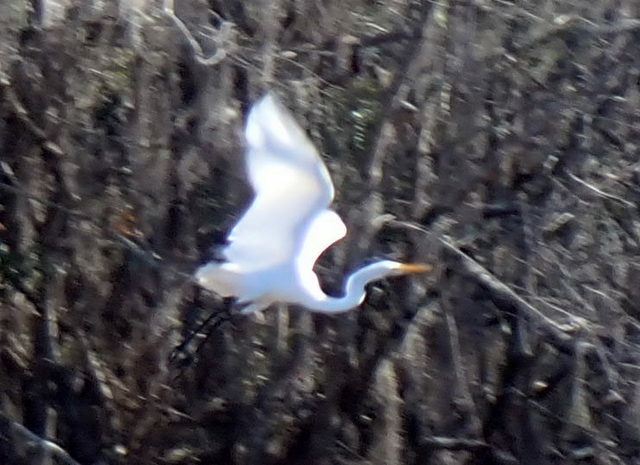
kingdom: Animalia
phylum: Chordata
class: Aves
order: Pelecaniformes
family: Ardeidae
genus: Ardea
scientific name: Ardea alba
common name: Great egret
